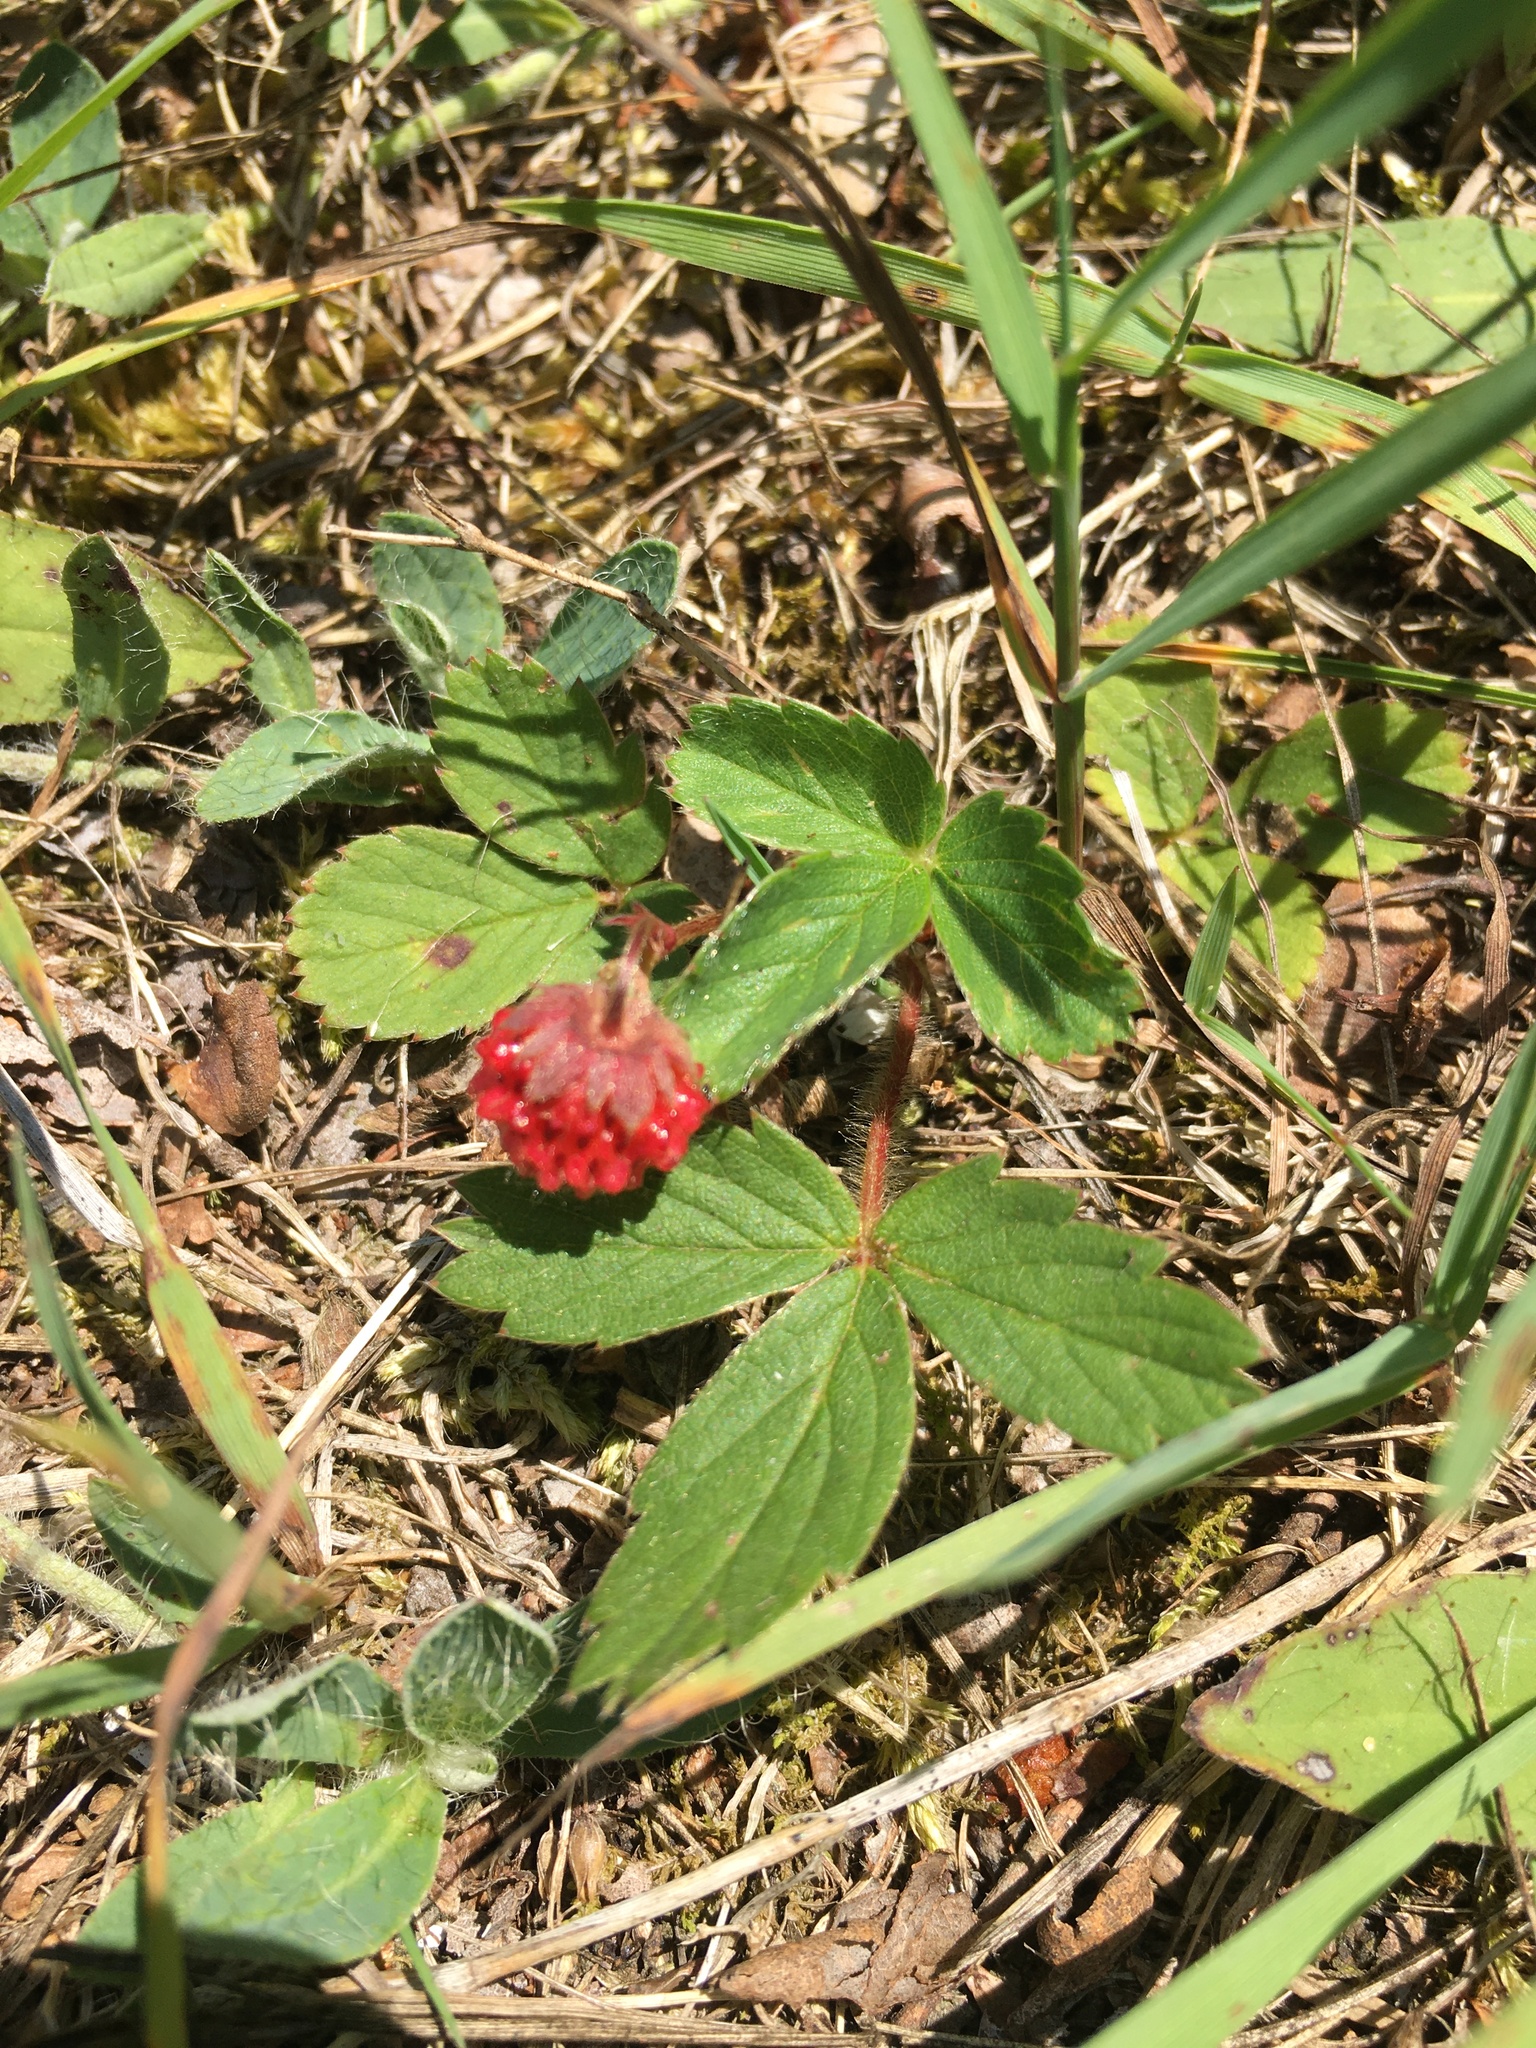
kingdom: Plantae
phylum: Tracheophyta
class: Magnoliopsida
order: Rosales
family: Rosaceae
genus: Fragaria
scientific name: Fragaria virginiana
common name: Thickleaved wild strawberry
